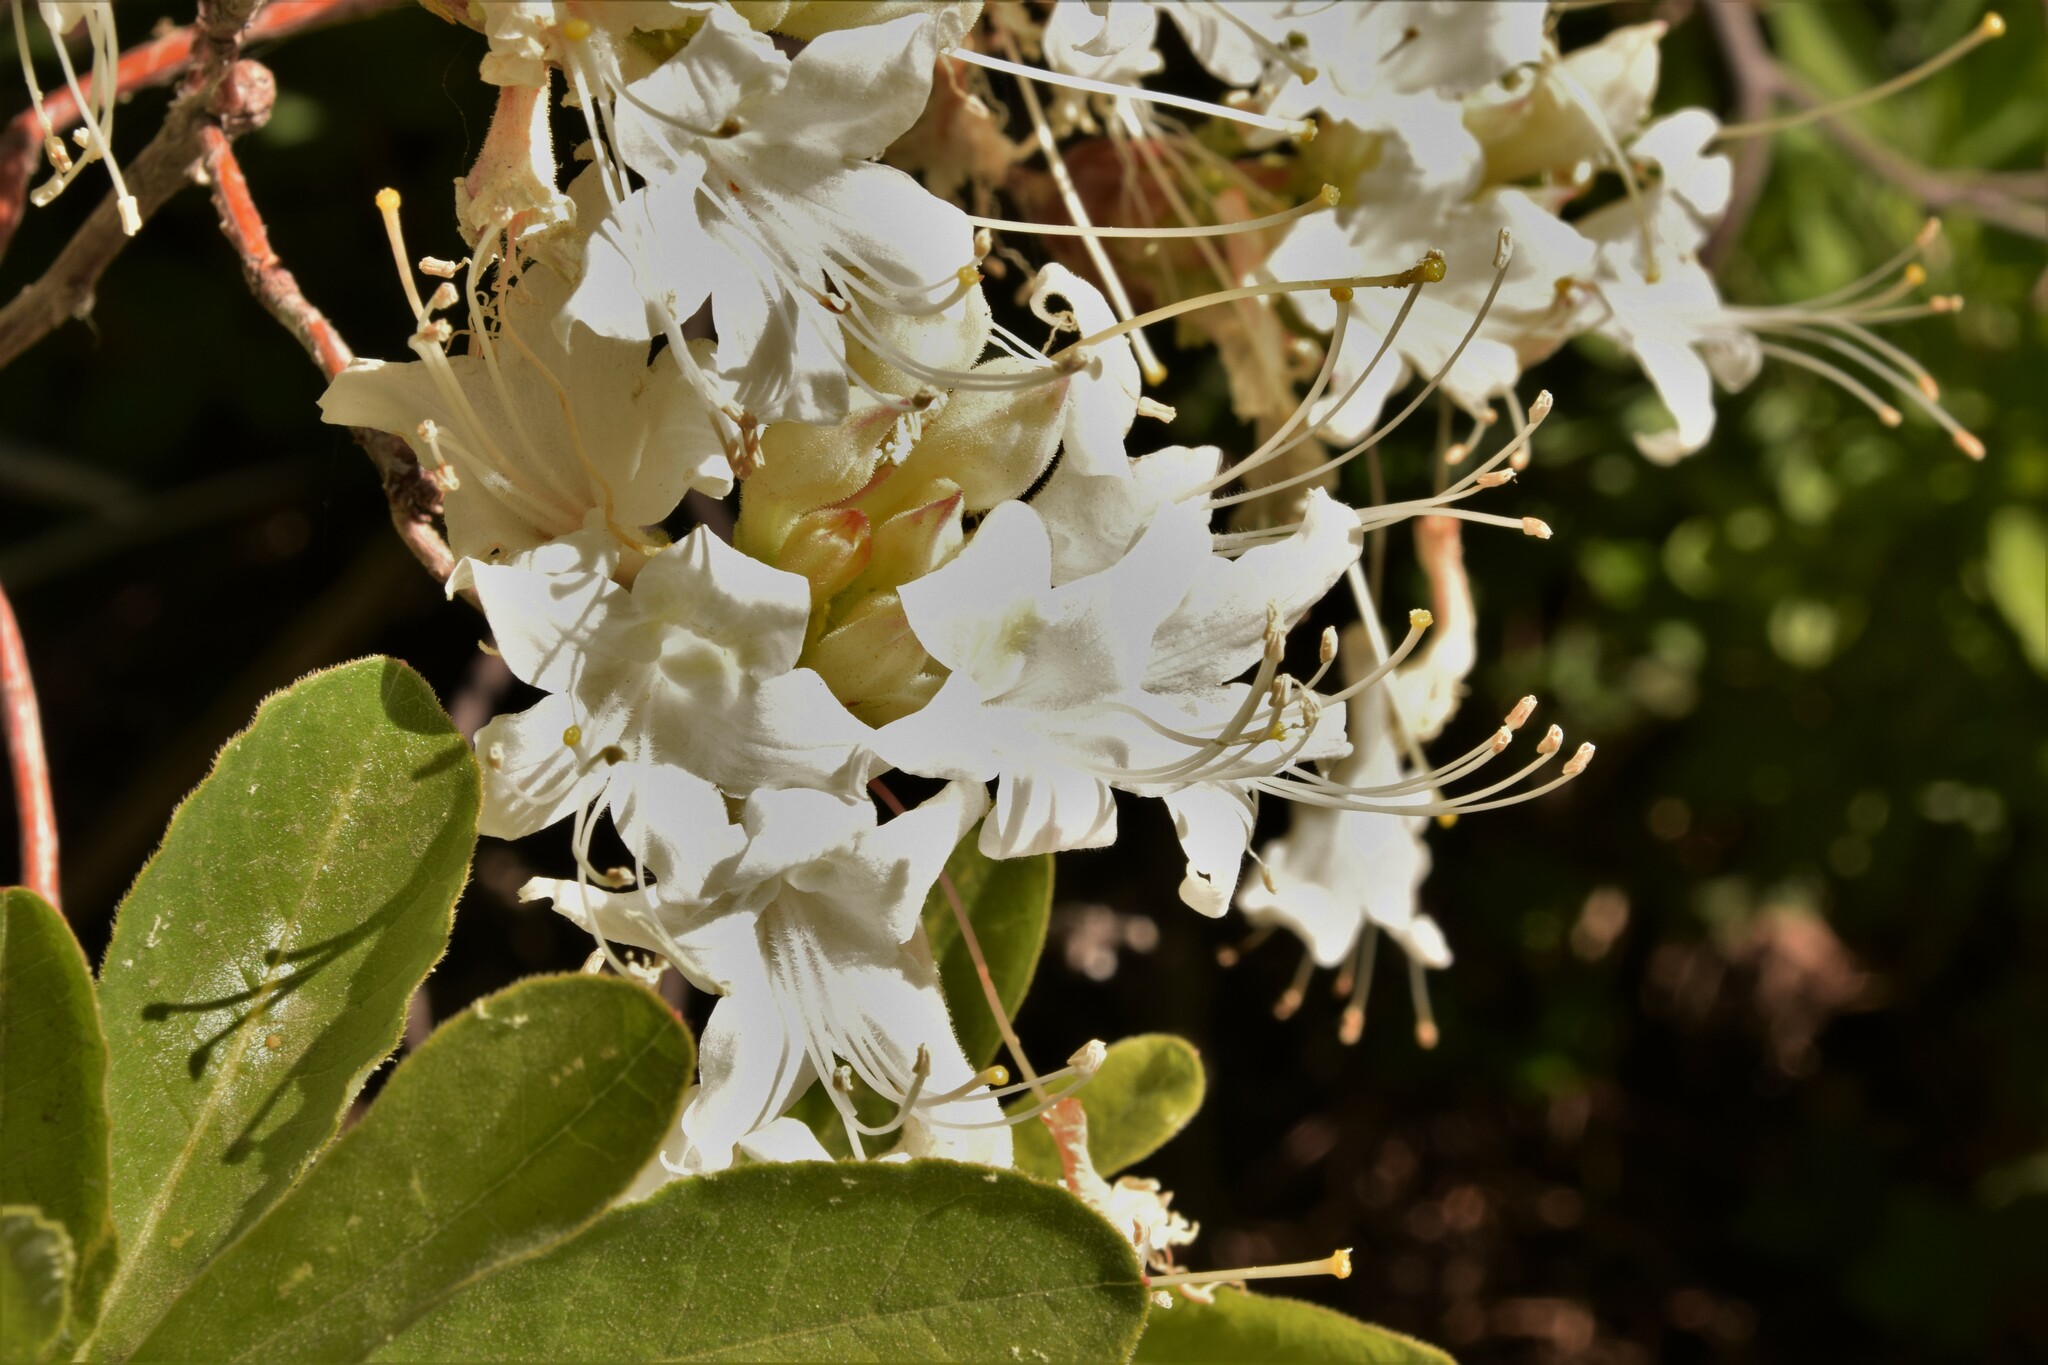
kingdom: Plantae
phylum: Tracheophyta
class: Magnoliopsida
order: Ericales
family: Ericaceae
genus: Rhododendron
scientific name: Rhododendron occidentale
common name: Western azalea
